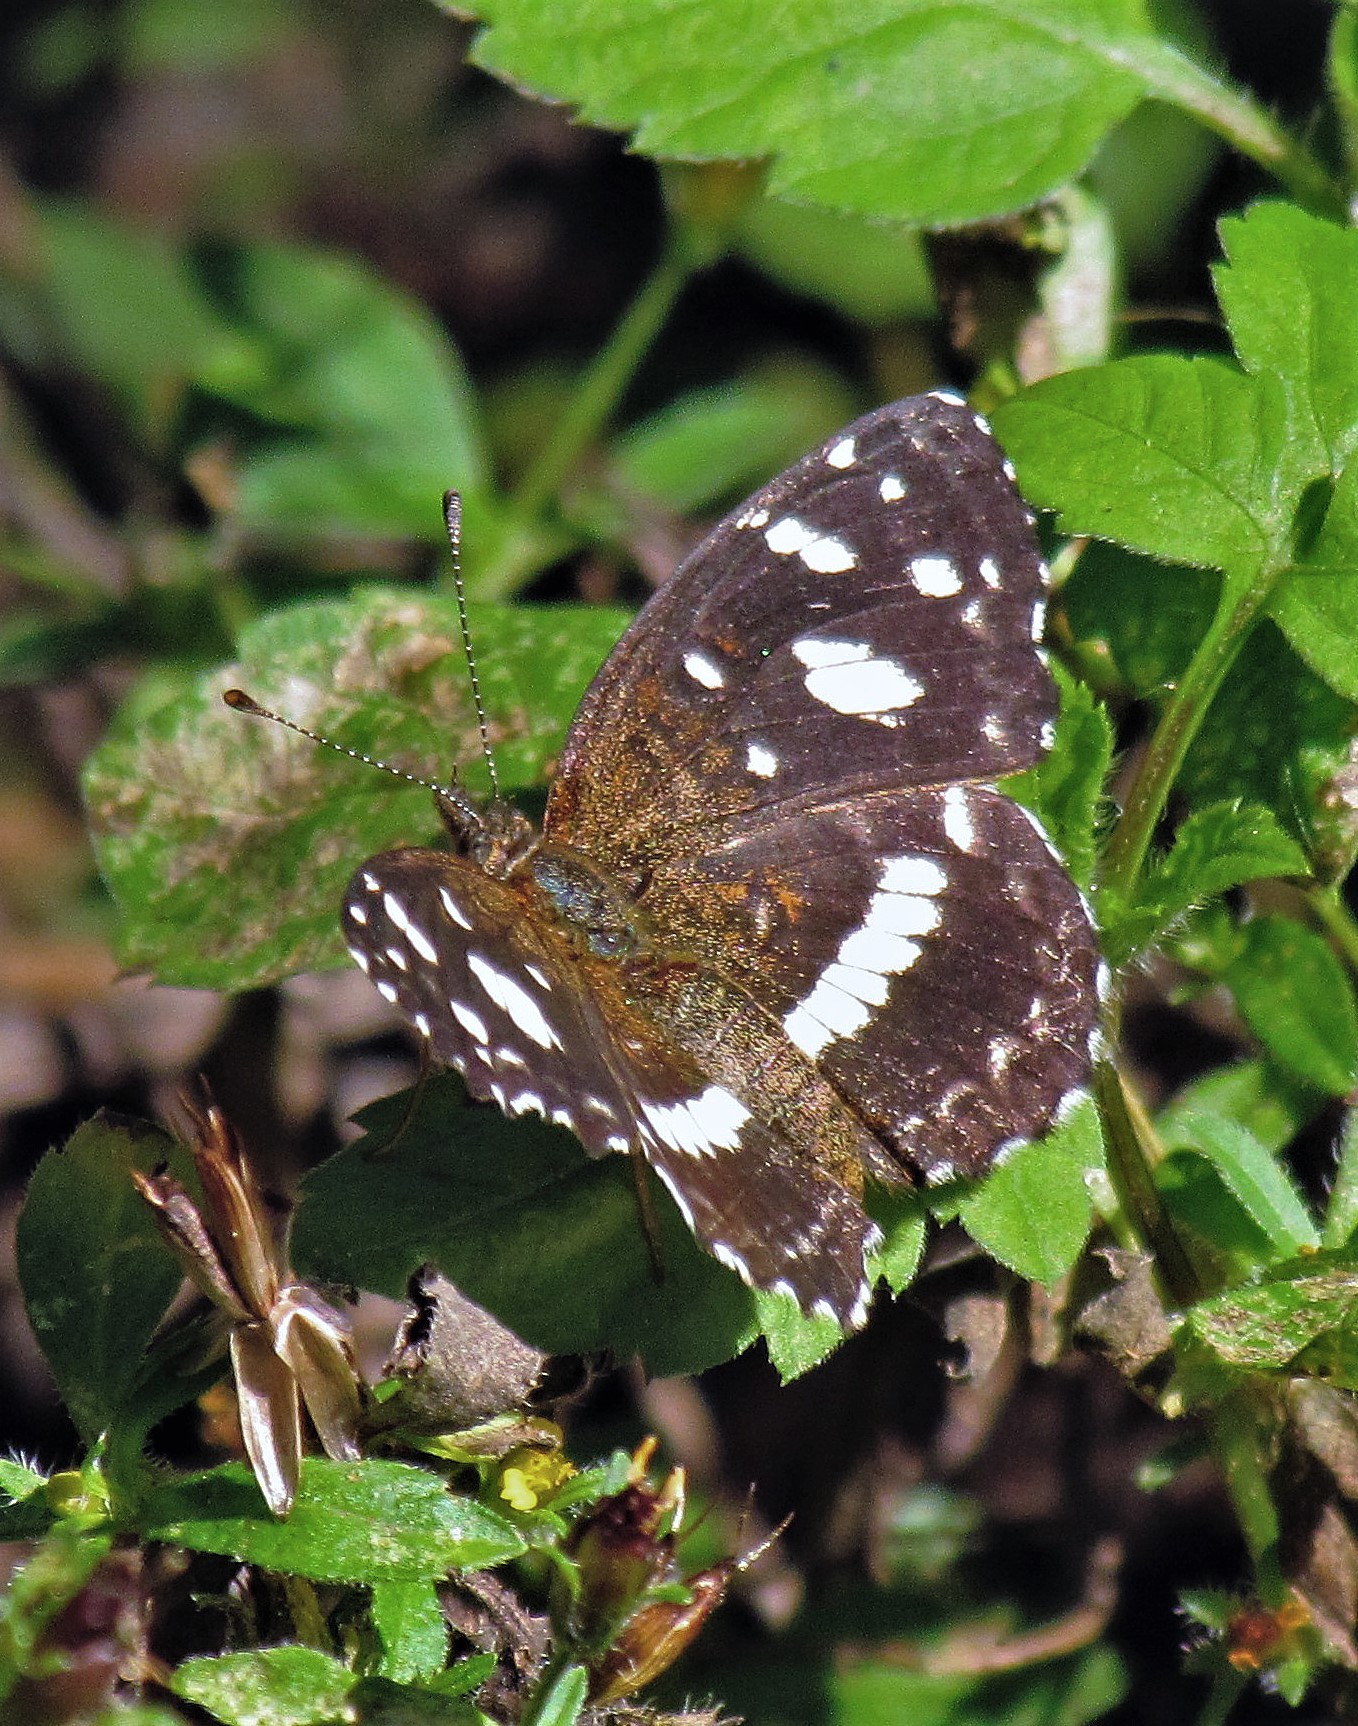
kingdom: Animalia
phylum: Arthropoda
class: Insecta
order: Lepidoptera
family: Nymphalidae
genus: Ortilia
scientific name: Ortilia ithra
